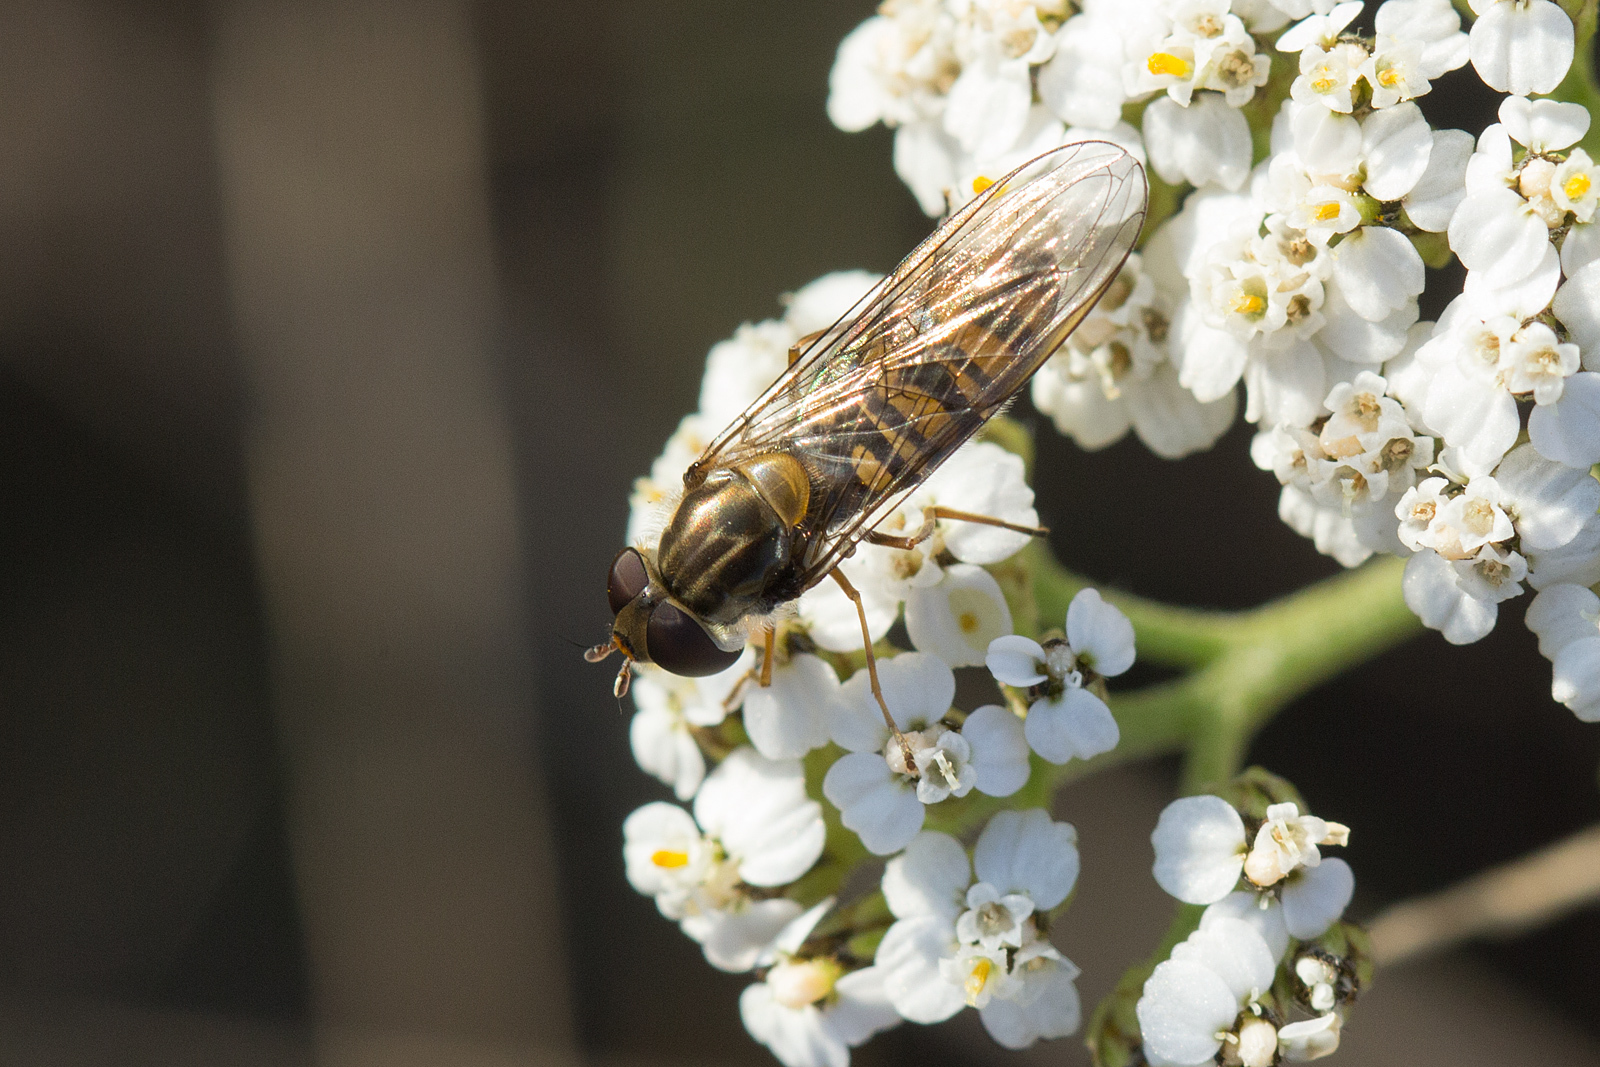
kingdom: Animalia
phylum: Arthropoda
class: Insecta
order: Diptera
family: Syrphidae
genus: Episyrphus
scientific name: Episyrphus balteatus
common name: Marmalade hoverfly
